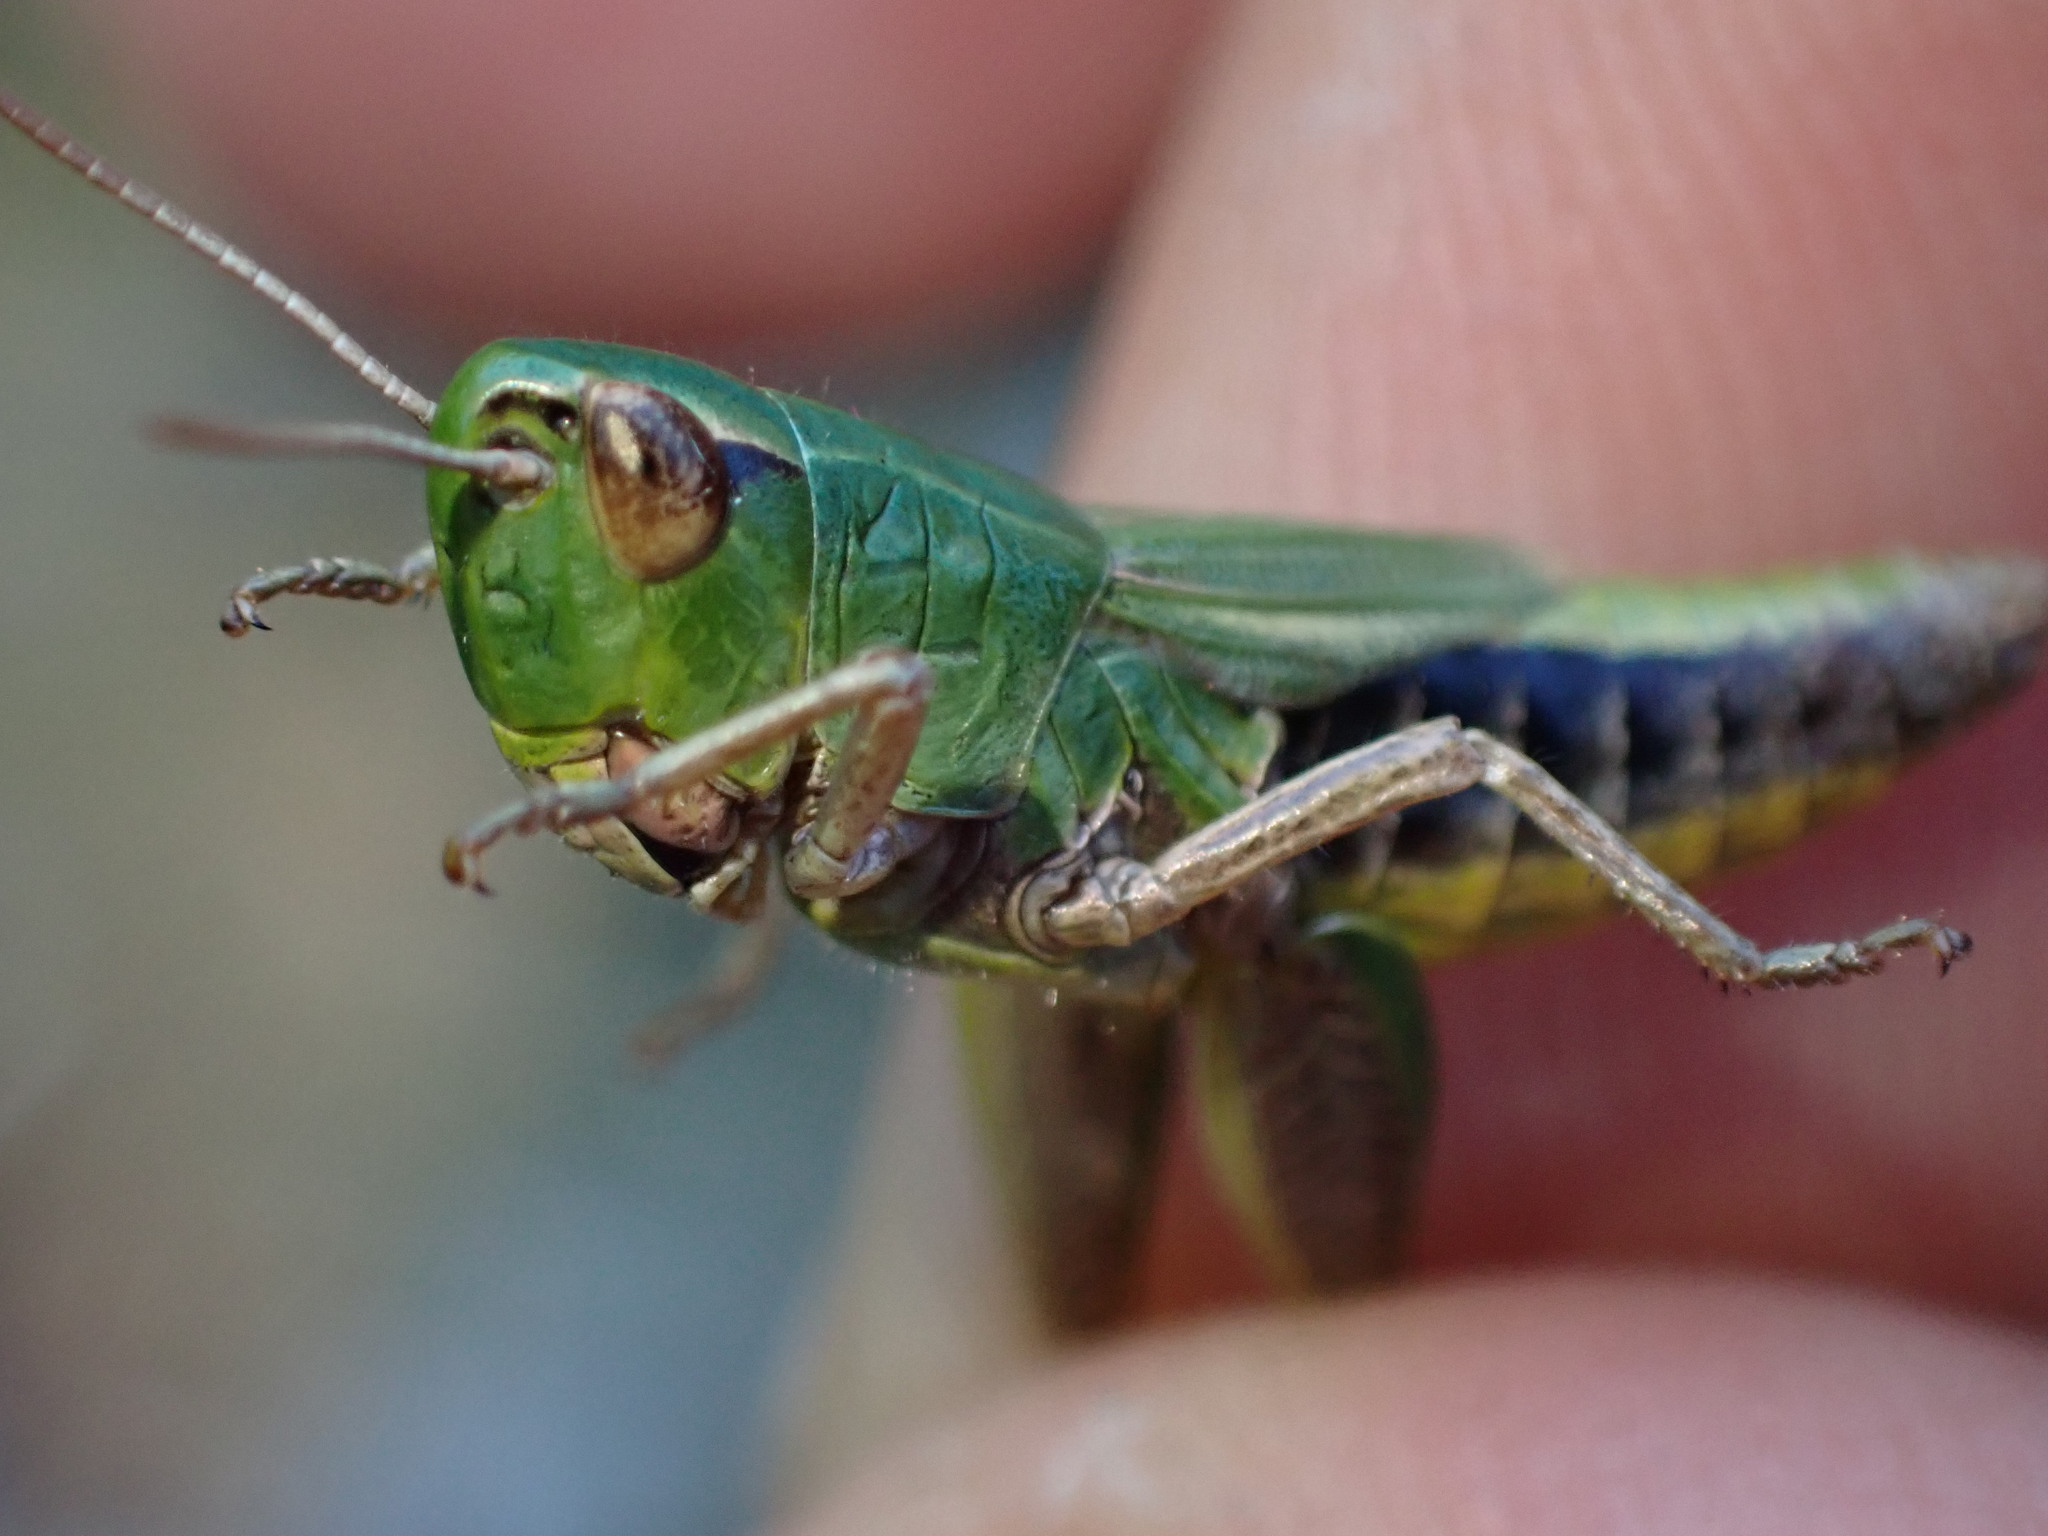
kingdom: Animalia
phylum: Arthropoda
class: Insecta
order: Orthoptera
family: Acrididae
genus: Pseudochorthippus
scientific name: Pseudochorthippus parallelus
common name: Meadow grasshopper
